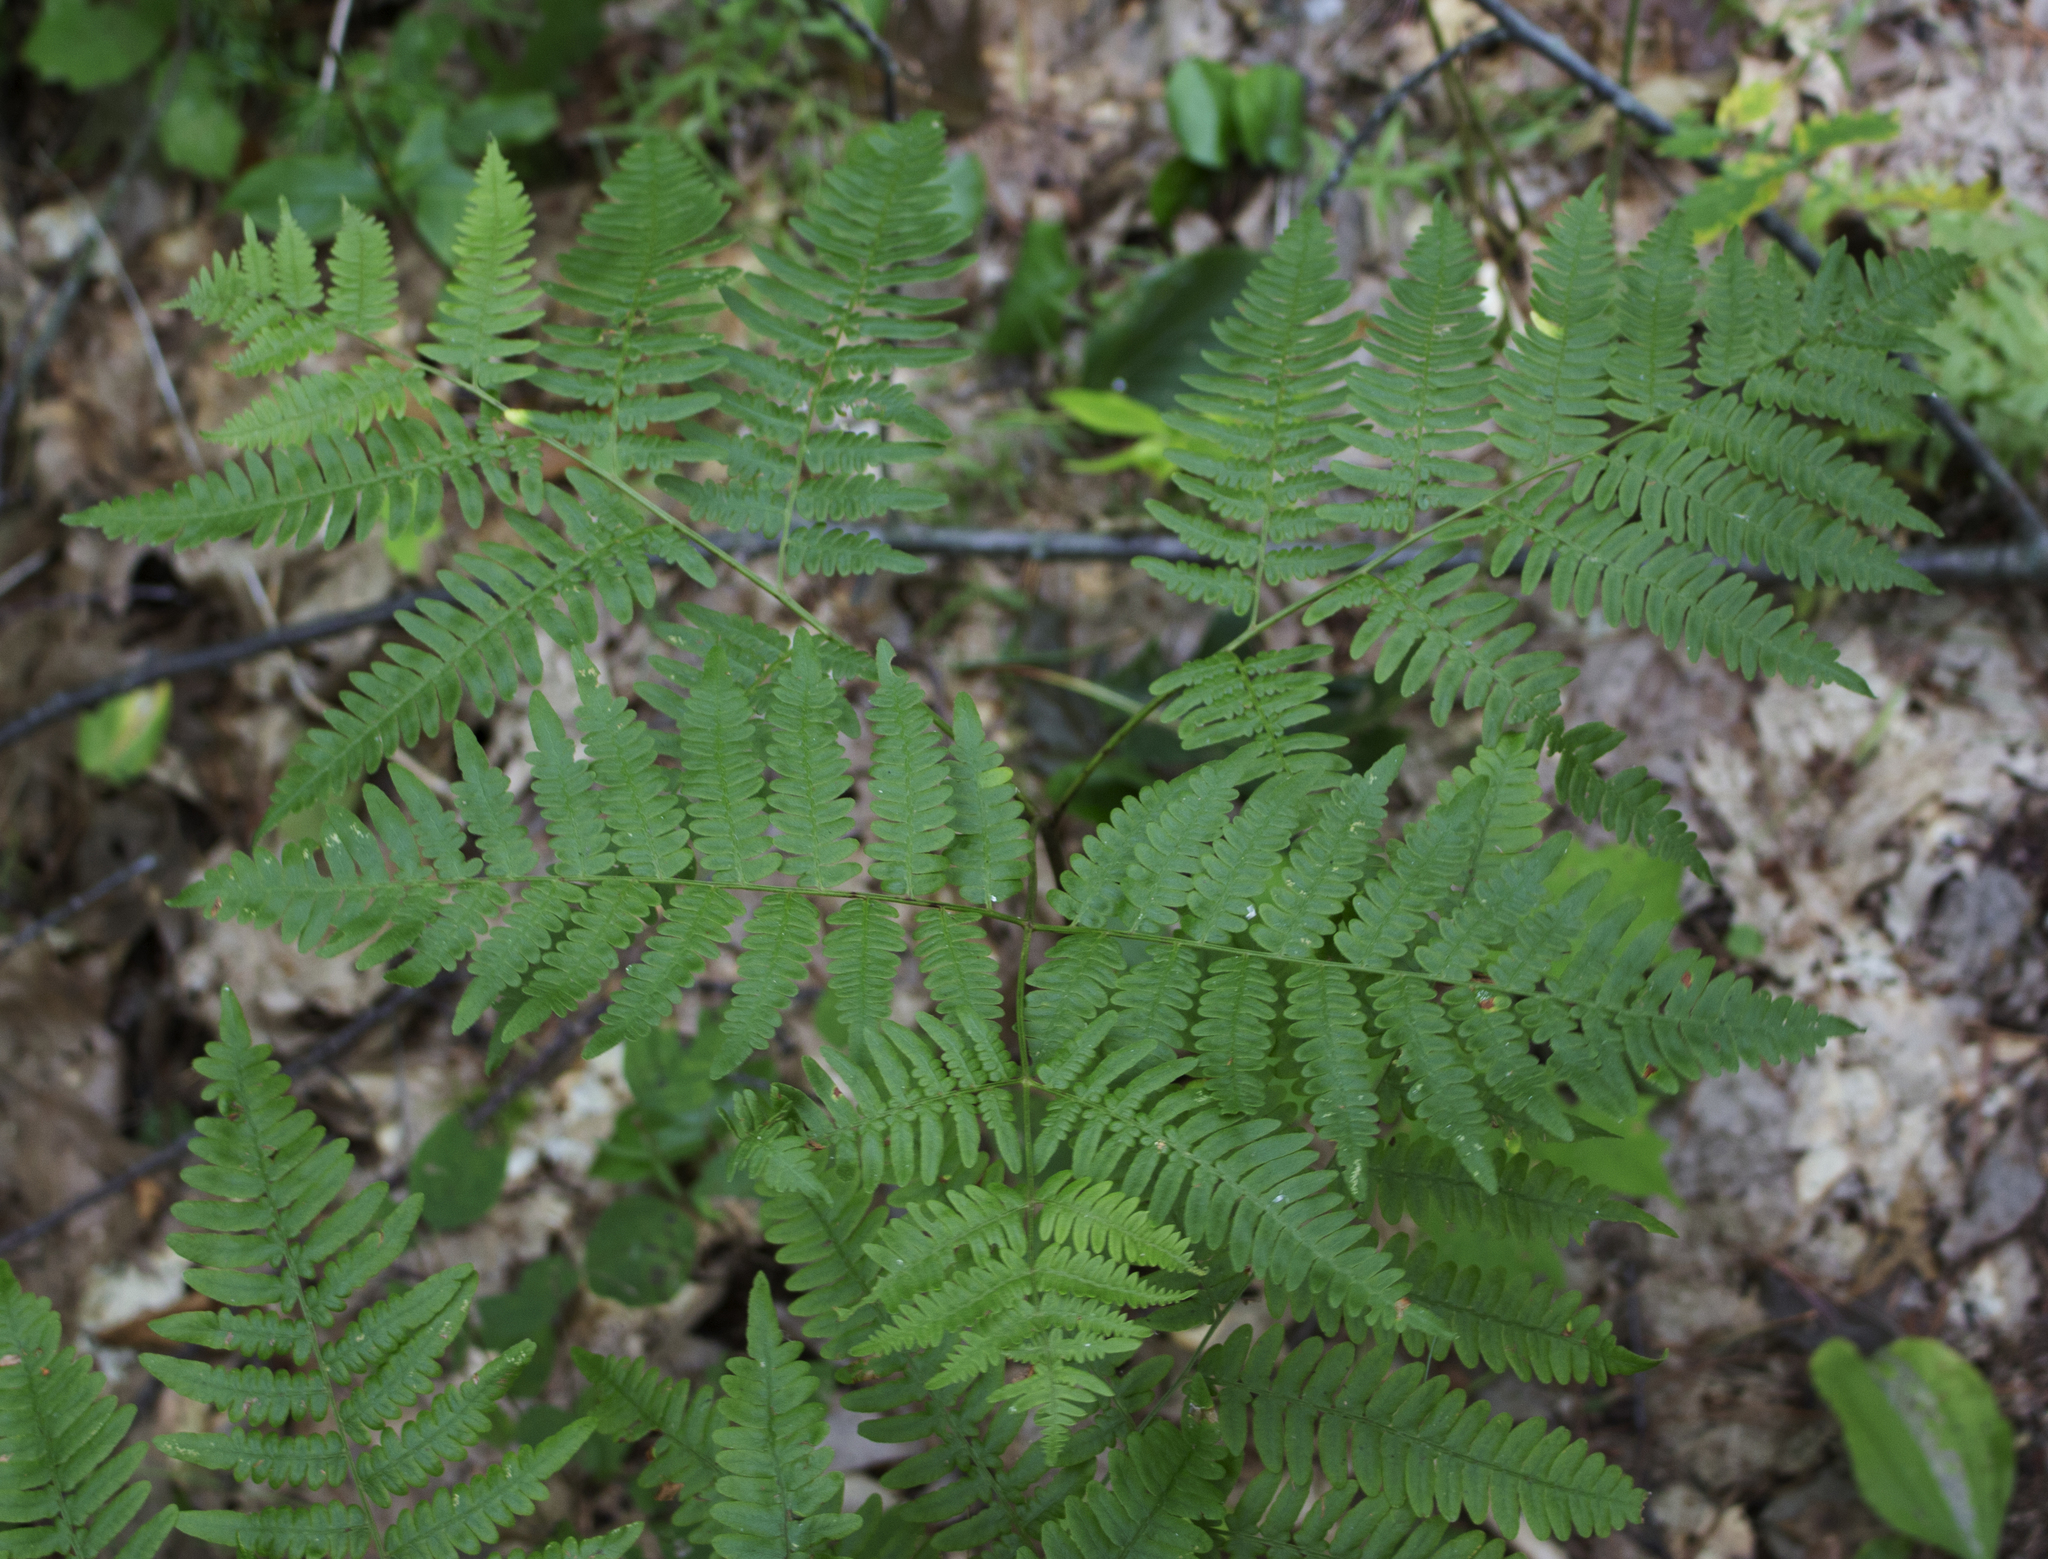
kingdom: Plantae
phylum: Tracheophyta
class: Polypodiopsida
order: Polypodiales
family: Dennstaedtiaceae
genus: Pteridium
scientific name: Pteridium aquilinum
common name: Bracken
